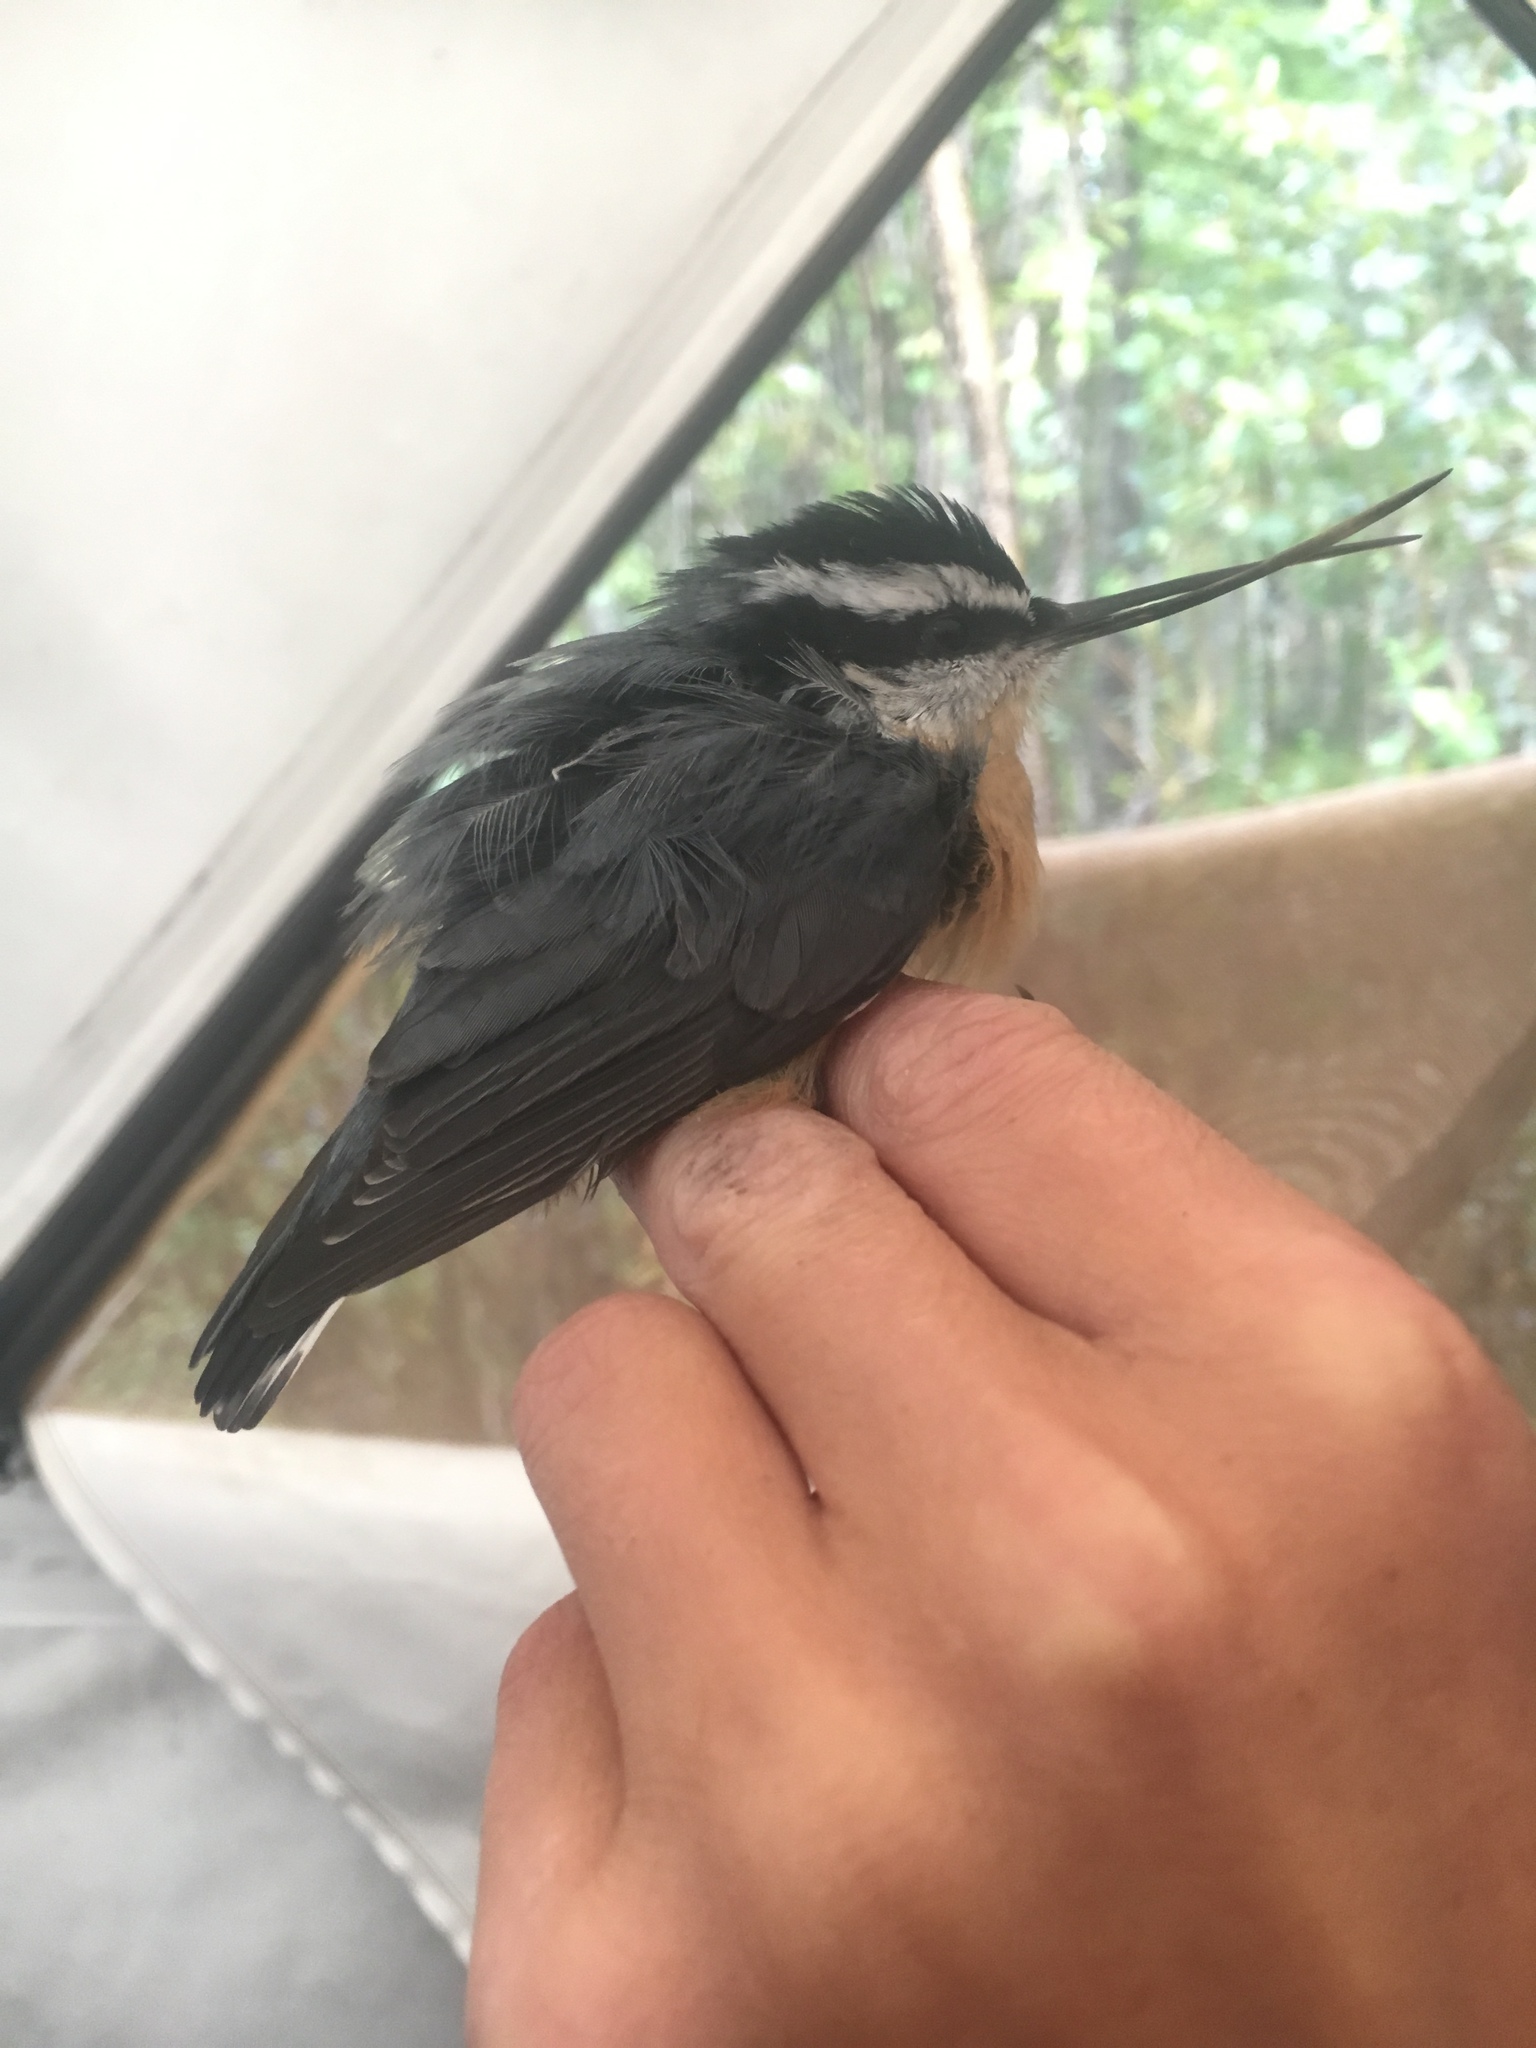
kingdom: Animalia
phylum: Chordata
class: Aves
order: Passeriformes
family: Sittidae
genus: Sitta
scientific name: Sitta canadensis
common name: Red-breasted nuthatch
